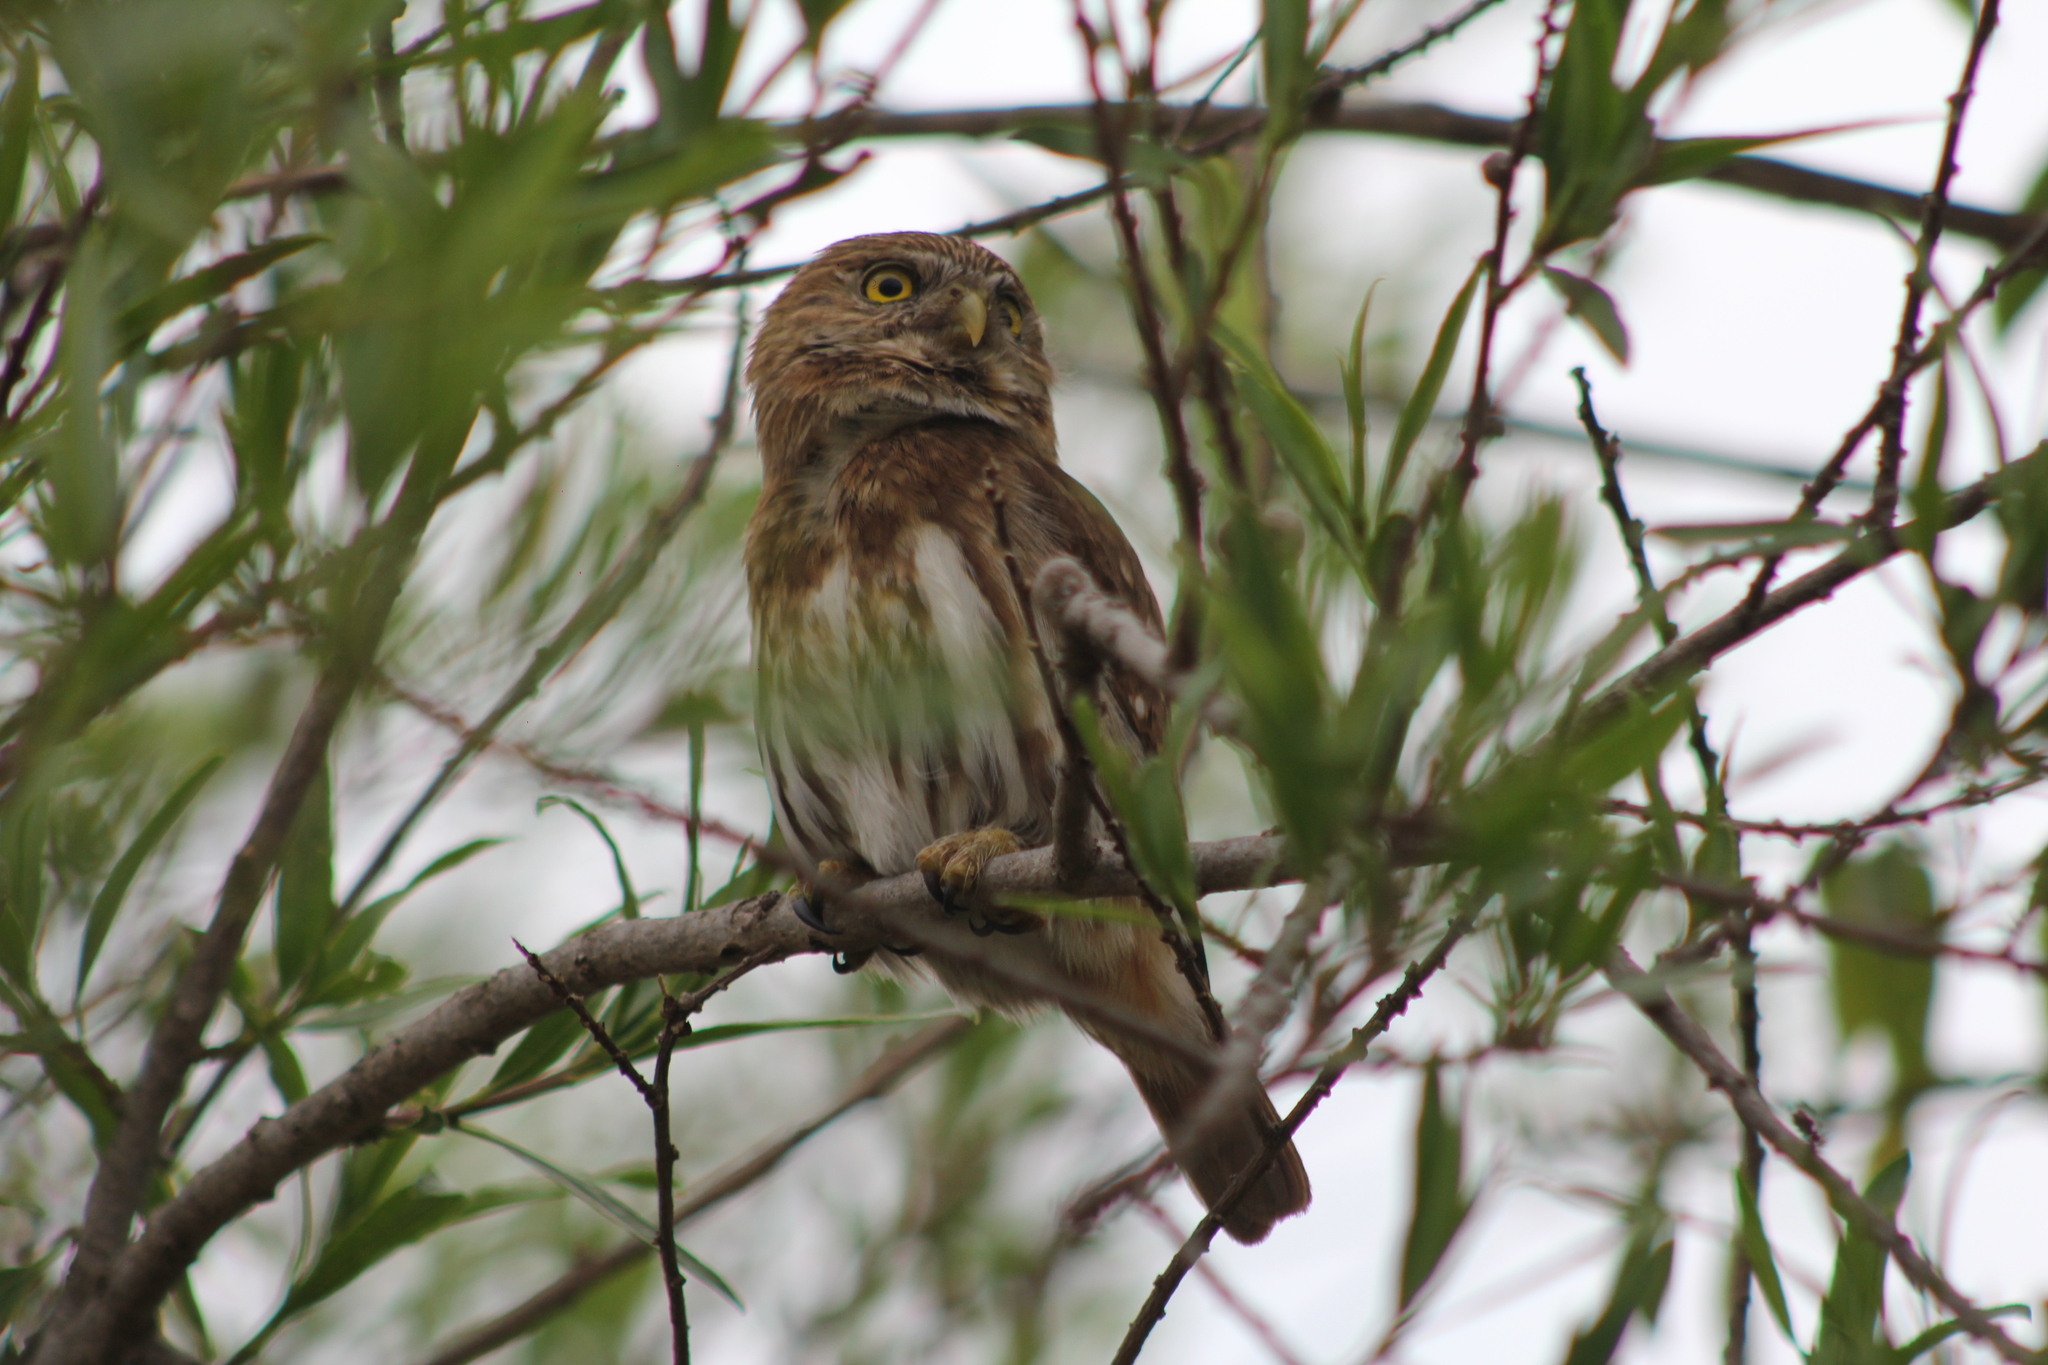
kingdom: Animalia
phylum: Chordata
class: Aves
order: Strigiformes
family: Strigidae
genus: Glaucidium
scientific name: Glaucidium brasilianum
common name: Ferruginous pygmy-owl
